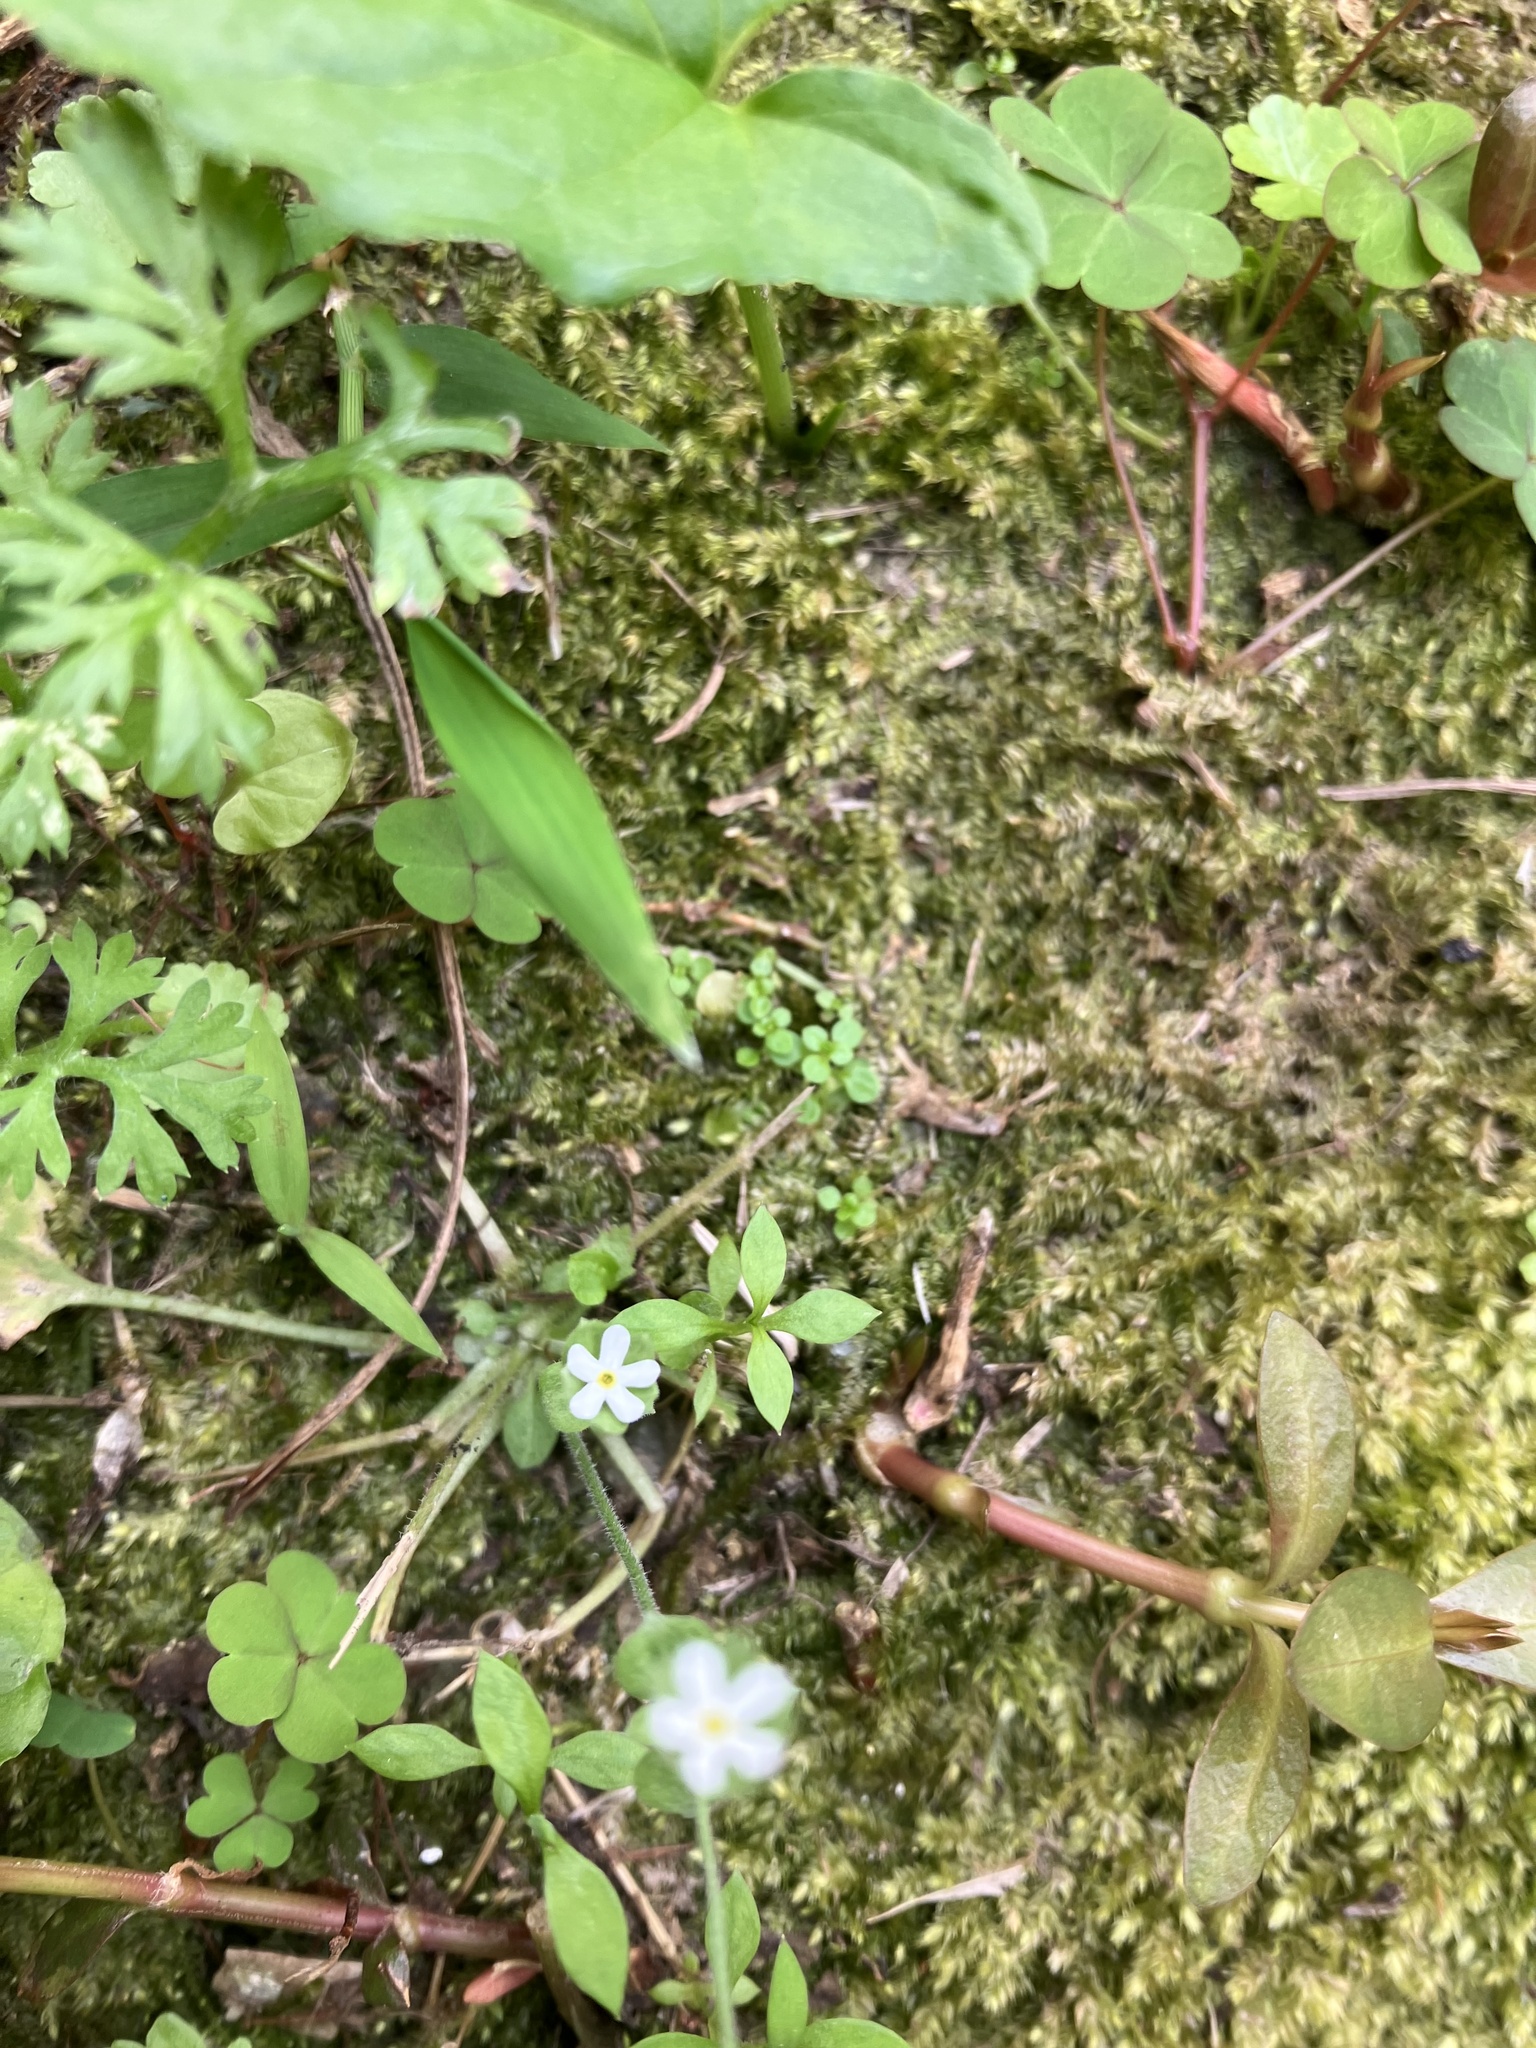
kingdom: Plantae
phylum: Tracheophyta
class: Magnoliopsida
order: Ericales
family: Primulaceae
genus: Androsace
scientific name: Androsace umbellata
